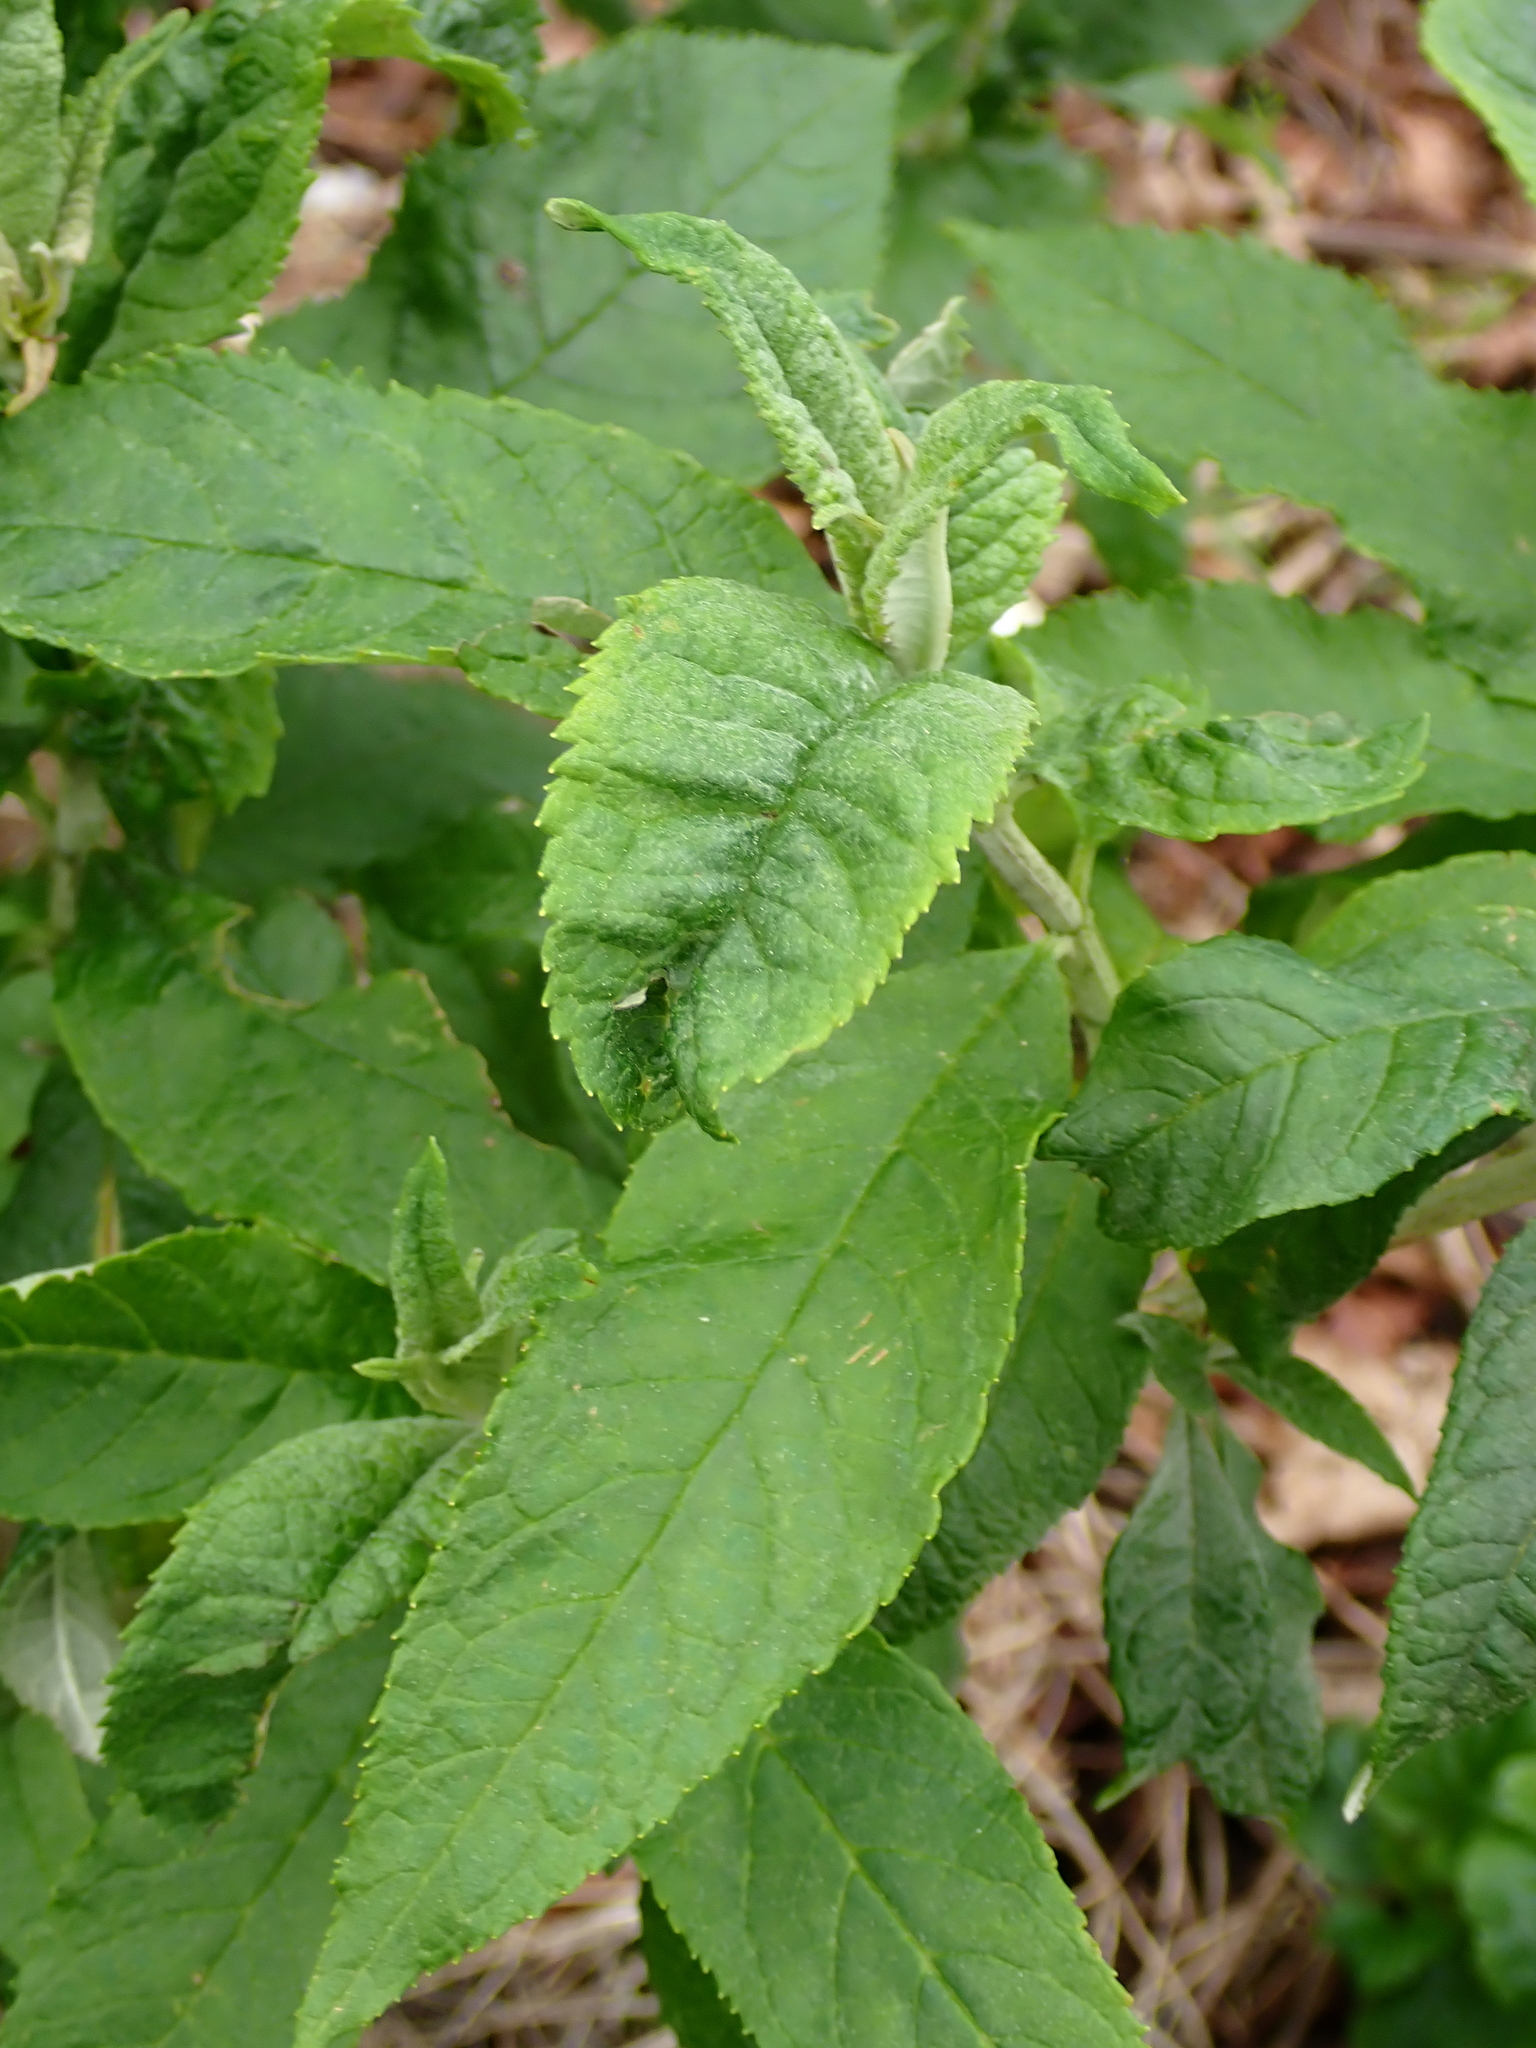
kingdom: Plantae
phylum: Tracheophyta
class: Magnoliopsida
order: Lamiales
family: Scrophulariaceae
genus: Buddleja
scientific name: Buddleja davidii
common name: Butterfly-bush
